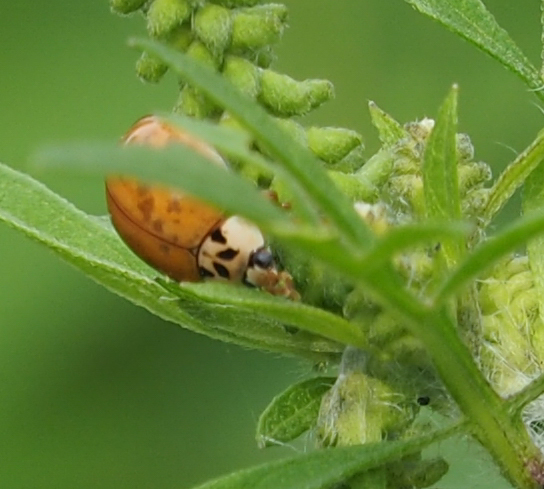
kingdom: Animalia
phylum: Arthropoda
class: Insecta
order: Coleoptera
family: Coccinellidae
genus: Harmonia
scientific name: Harmonia axyridis
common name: Harlequin ladybird
